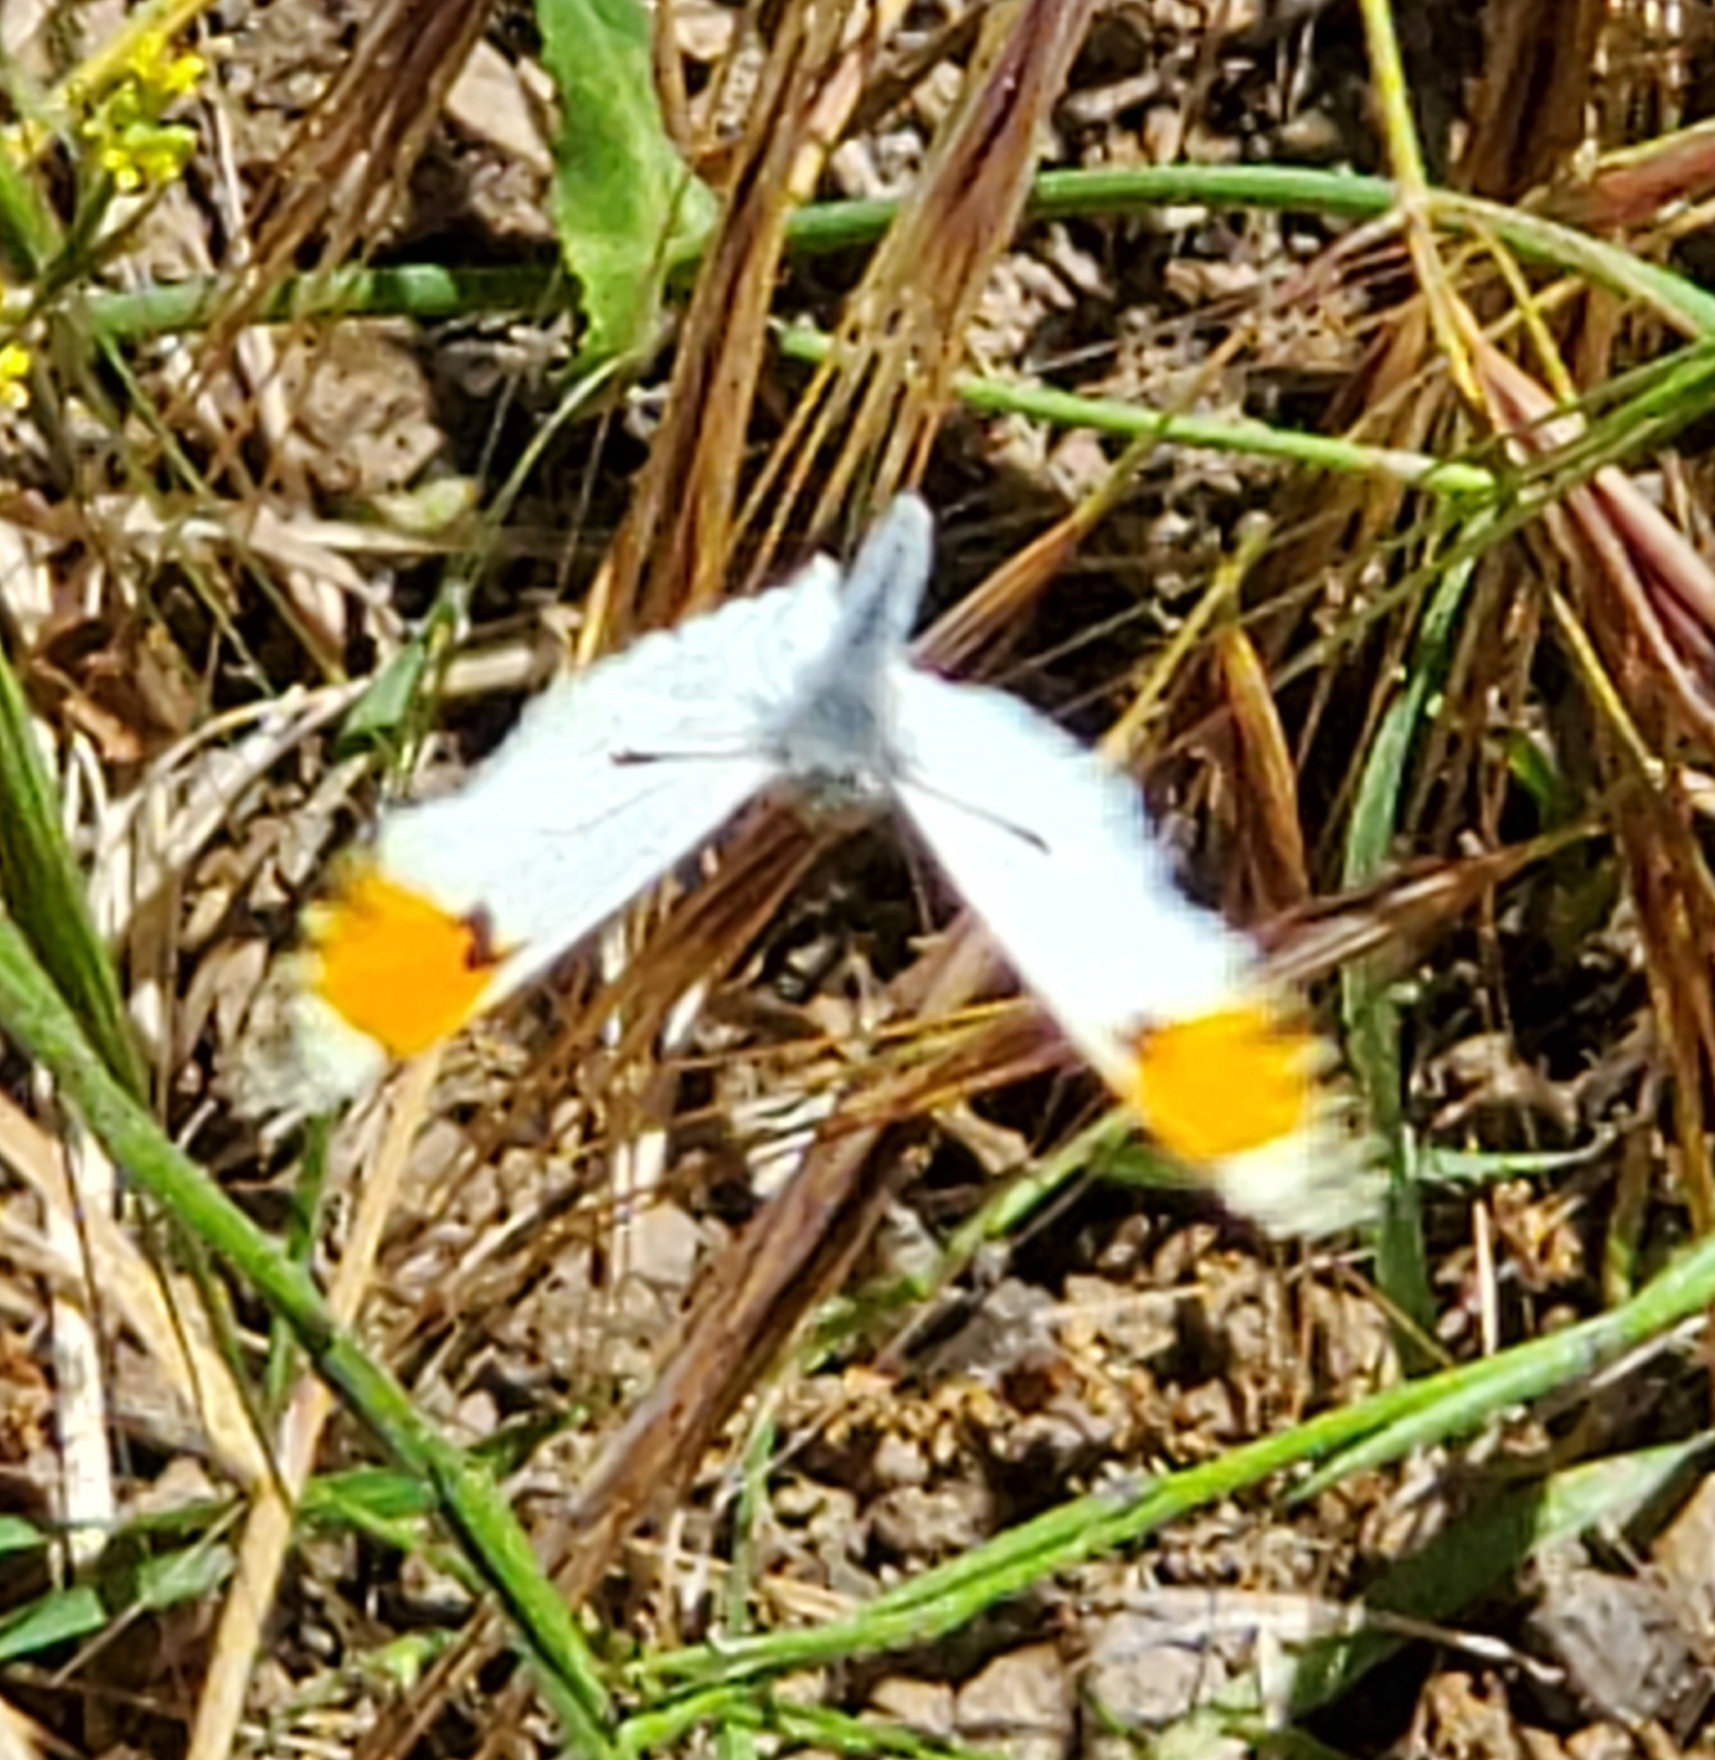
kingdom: Animalia
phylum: Arthropoda
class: Insecta
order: Lepidoptera
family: Pieridae
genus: Anthocharis
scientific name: Anthocharis sara
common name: Sara's orangetip
